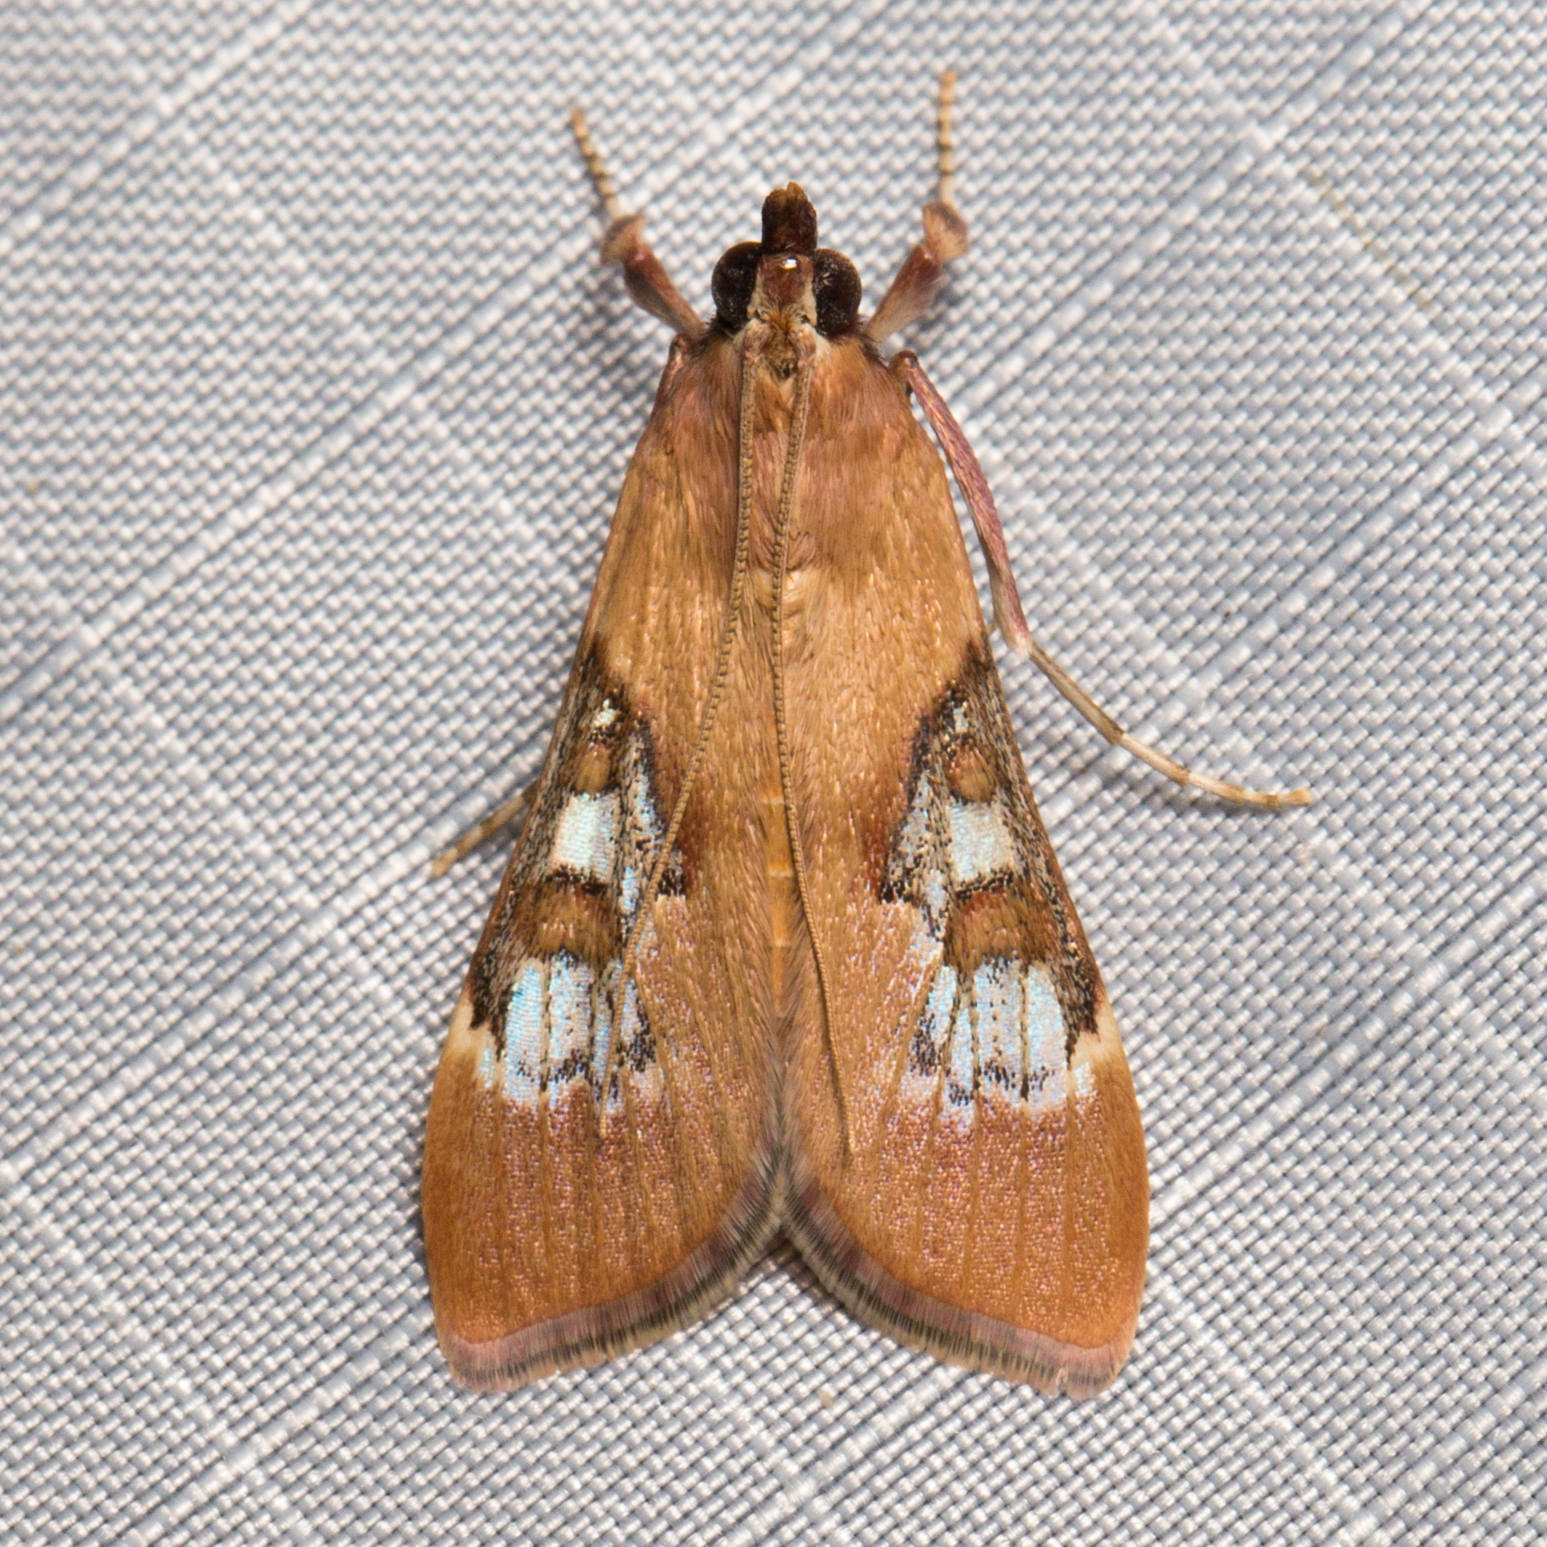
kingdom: Animalia
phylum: Arthropoda
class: Insecta
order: Lepidoptera
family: Crambidae
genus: Omiodes
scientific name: Omiodes stigmosalis
